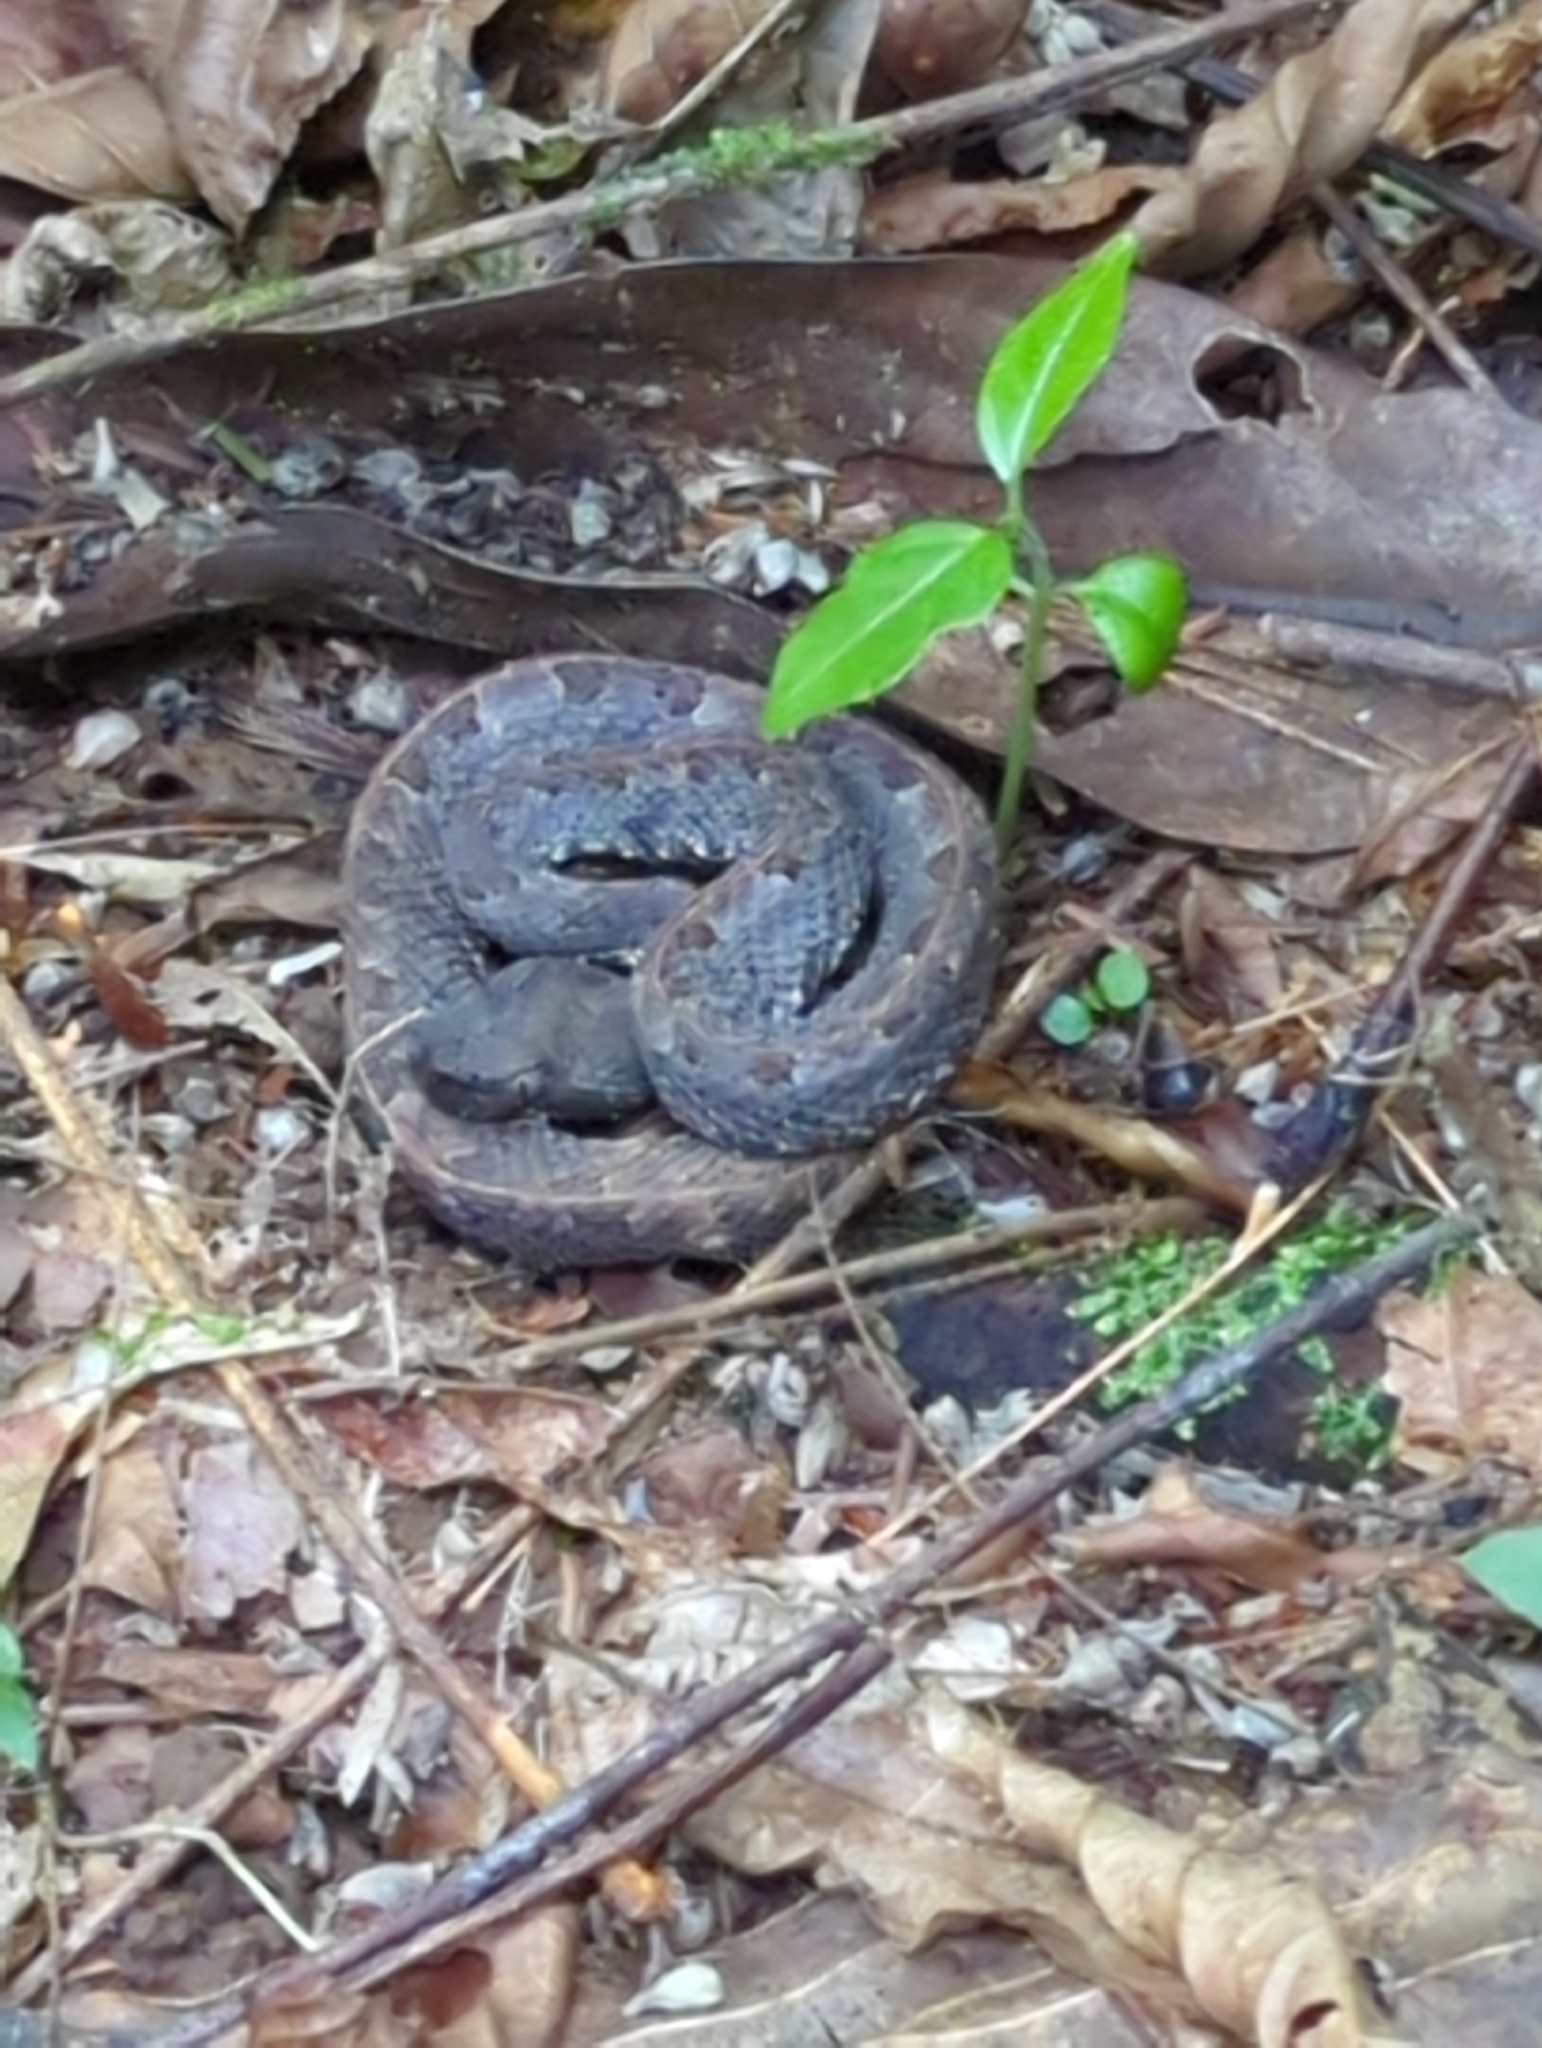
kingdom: Animalia
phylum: Chordata
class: Squamata
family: Viperidae
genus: Porthidium
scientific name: Porthidium nasutum
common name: Hognosed pit viper
